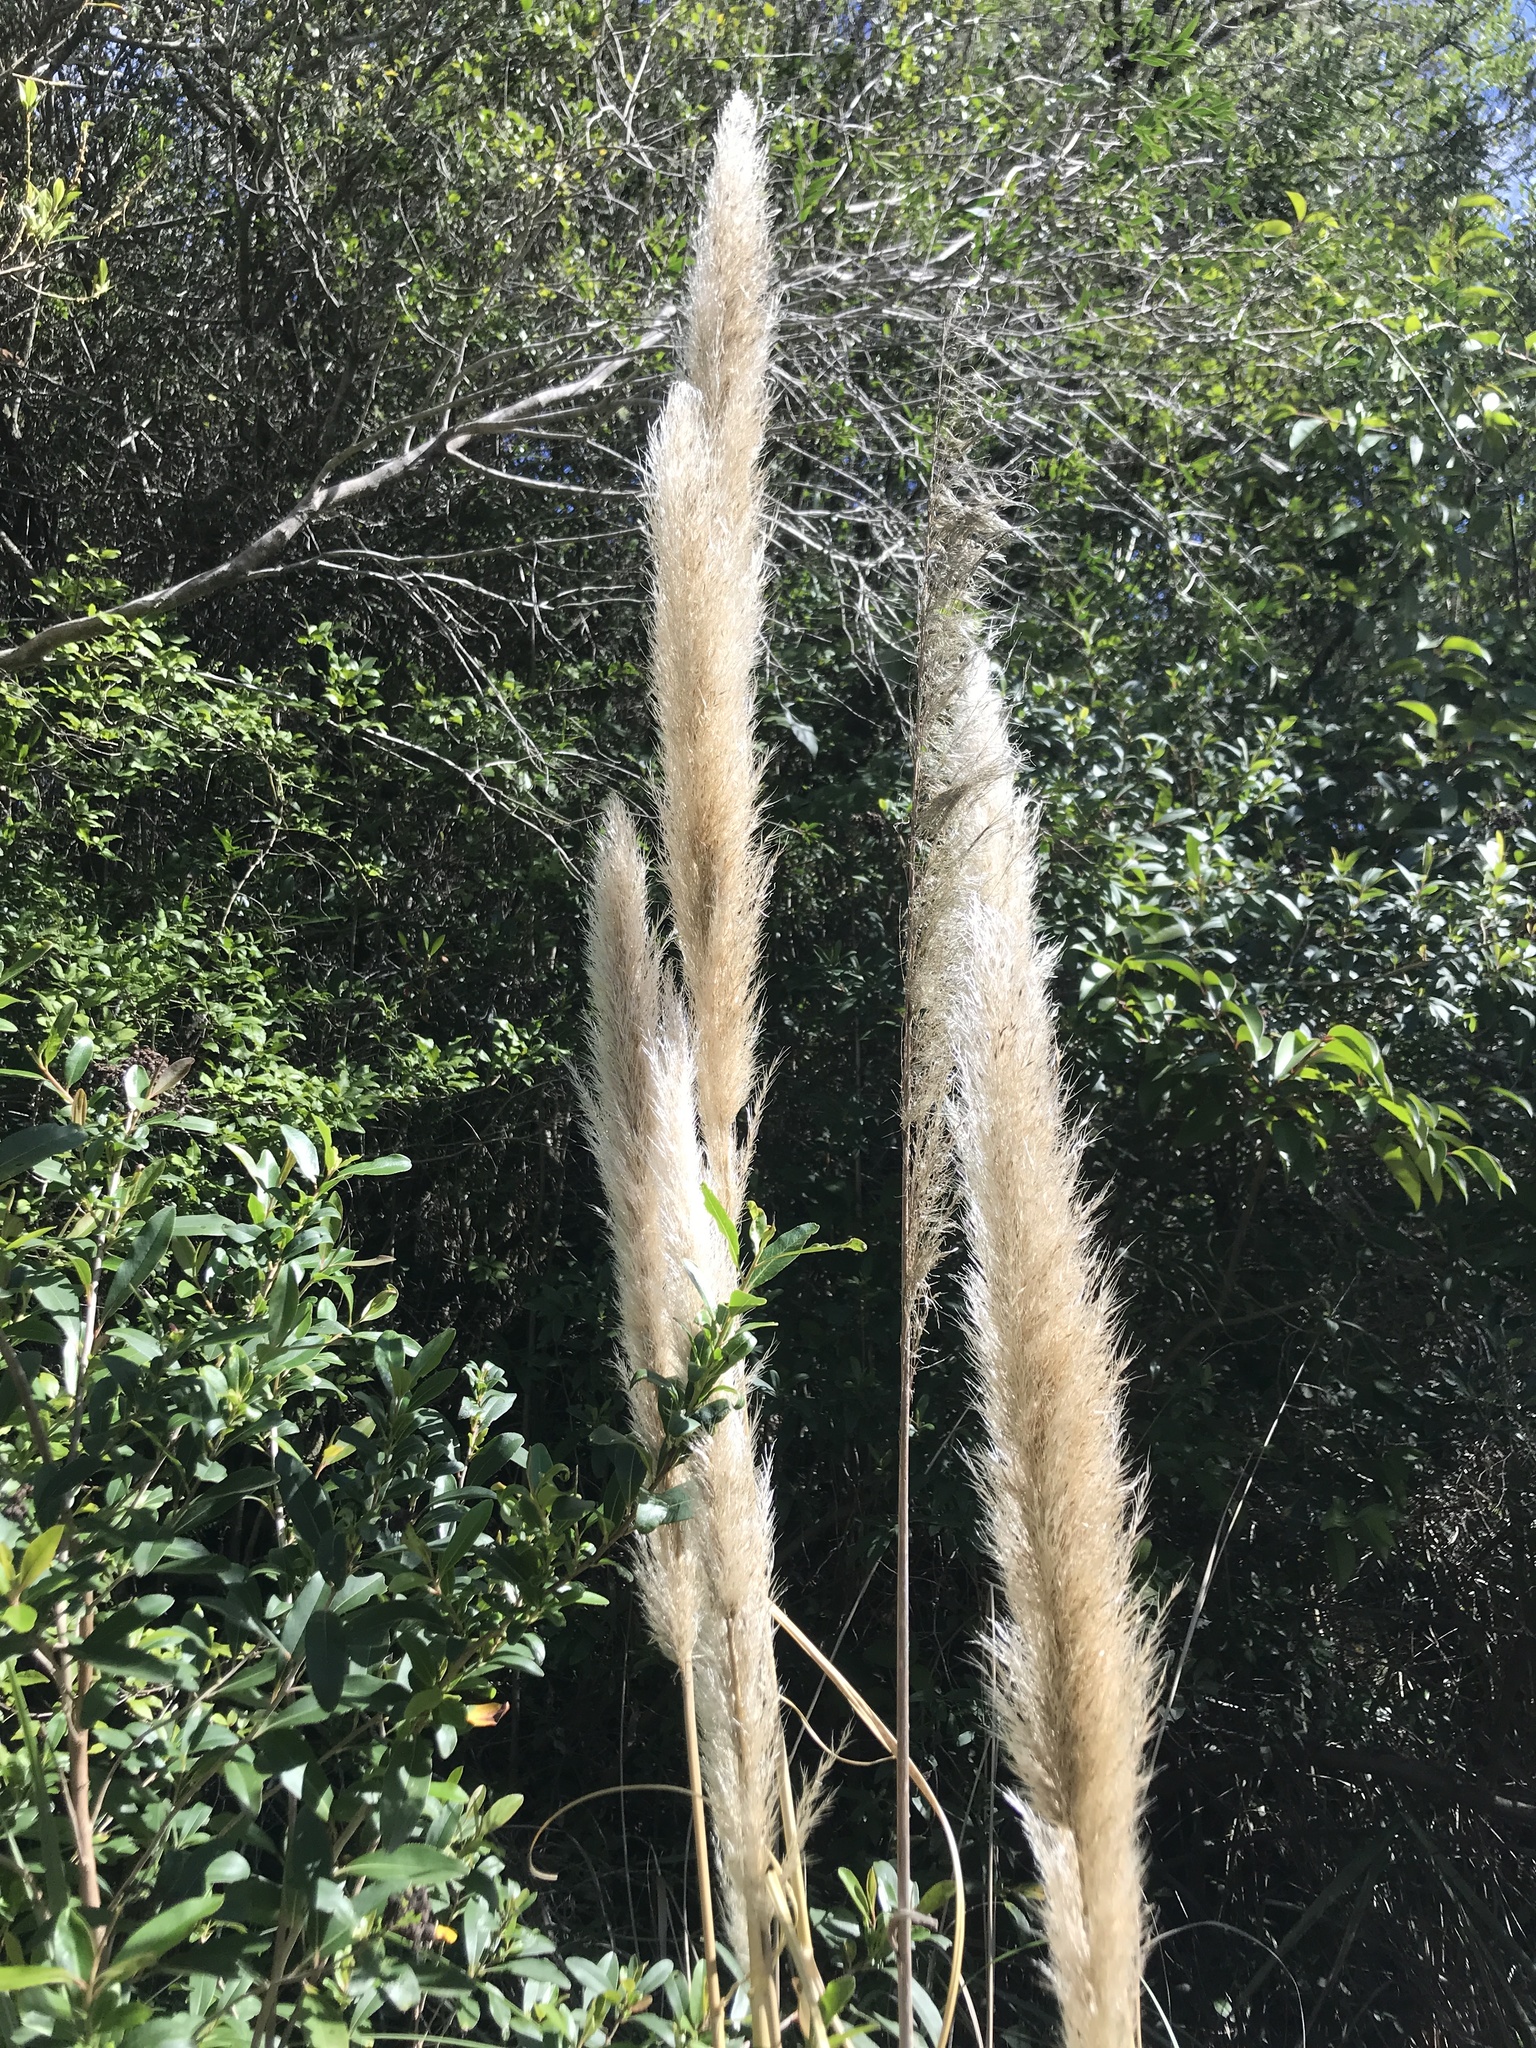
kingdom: Plantae
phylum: Tracheophyta
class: Liliopsida
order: Poales
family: Poaceae
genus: Cortaderia
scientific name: Cortaderia selloana
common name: Uruguayan pampas grass
